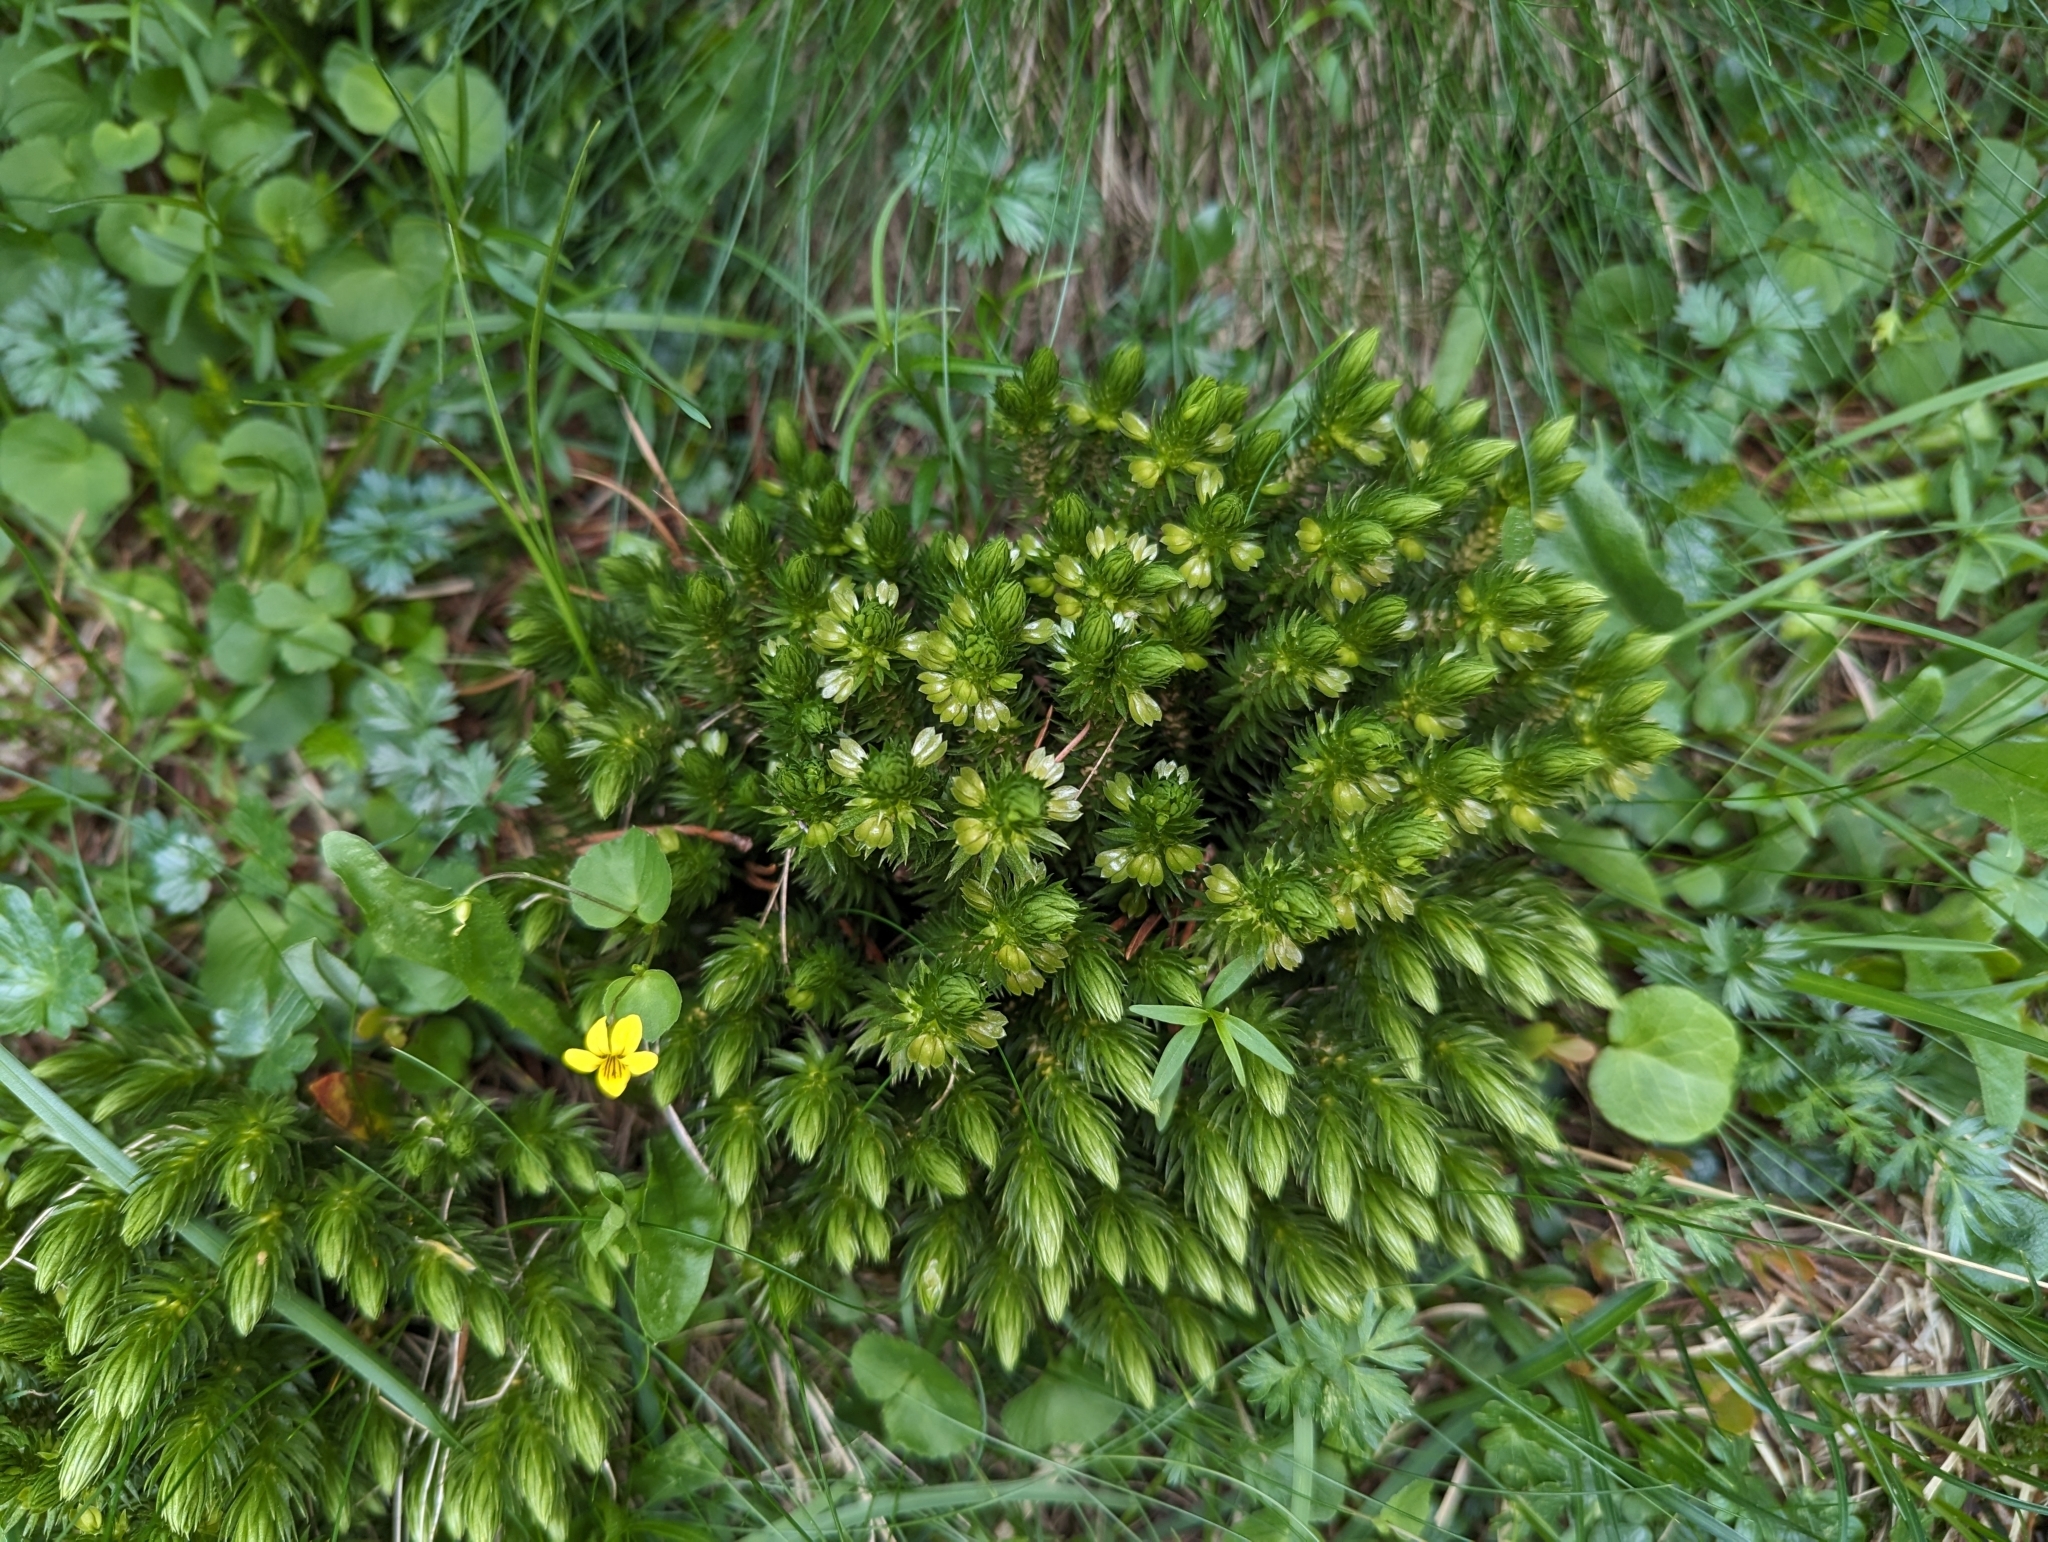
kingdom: Plantae
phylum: Tracheophyta
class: Lycopodiopsida
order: Lycopodiales
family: Lycopodiaceae
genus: Huperzia
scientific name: Huperzia selago
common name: Northern firmoss
